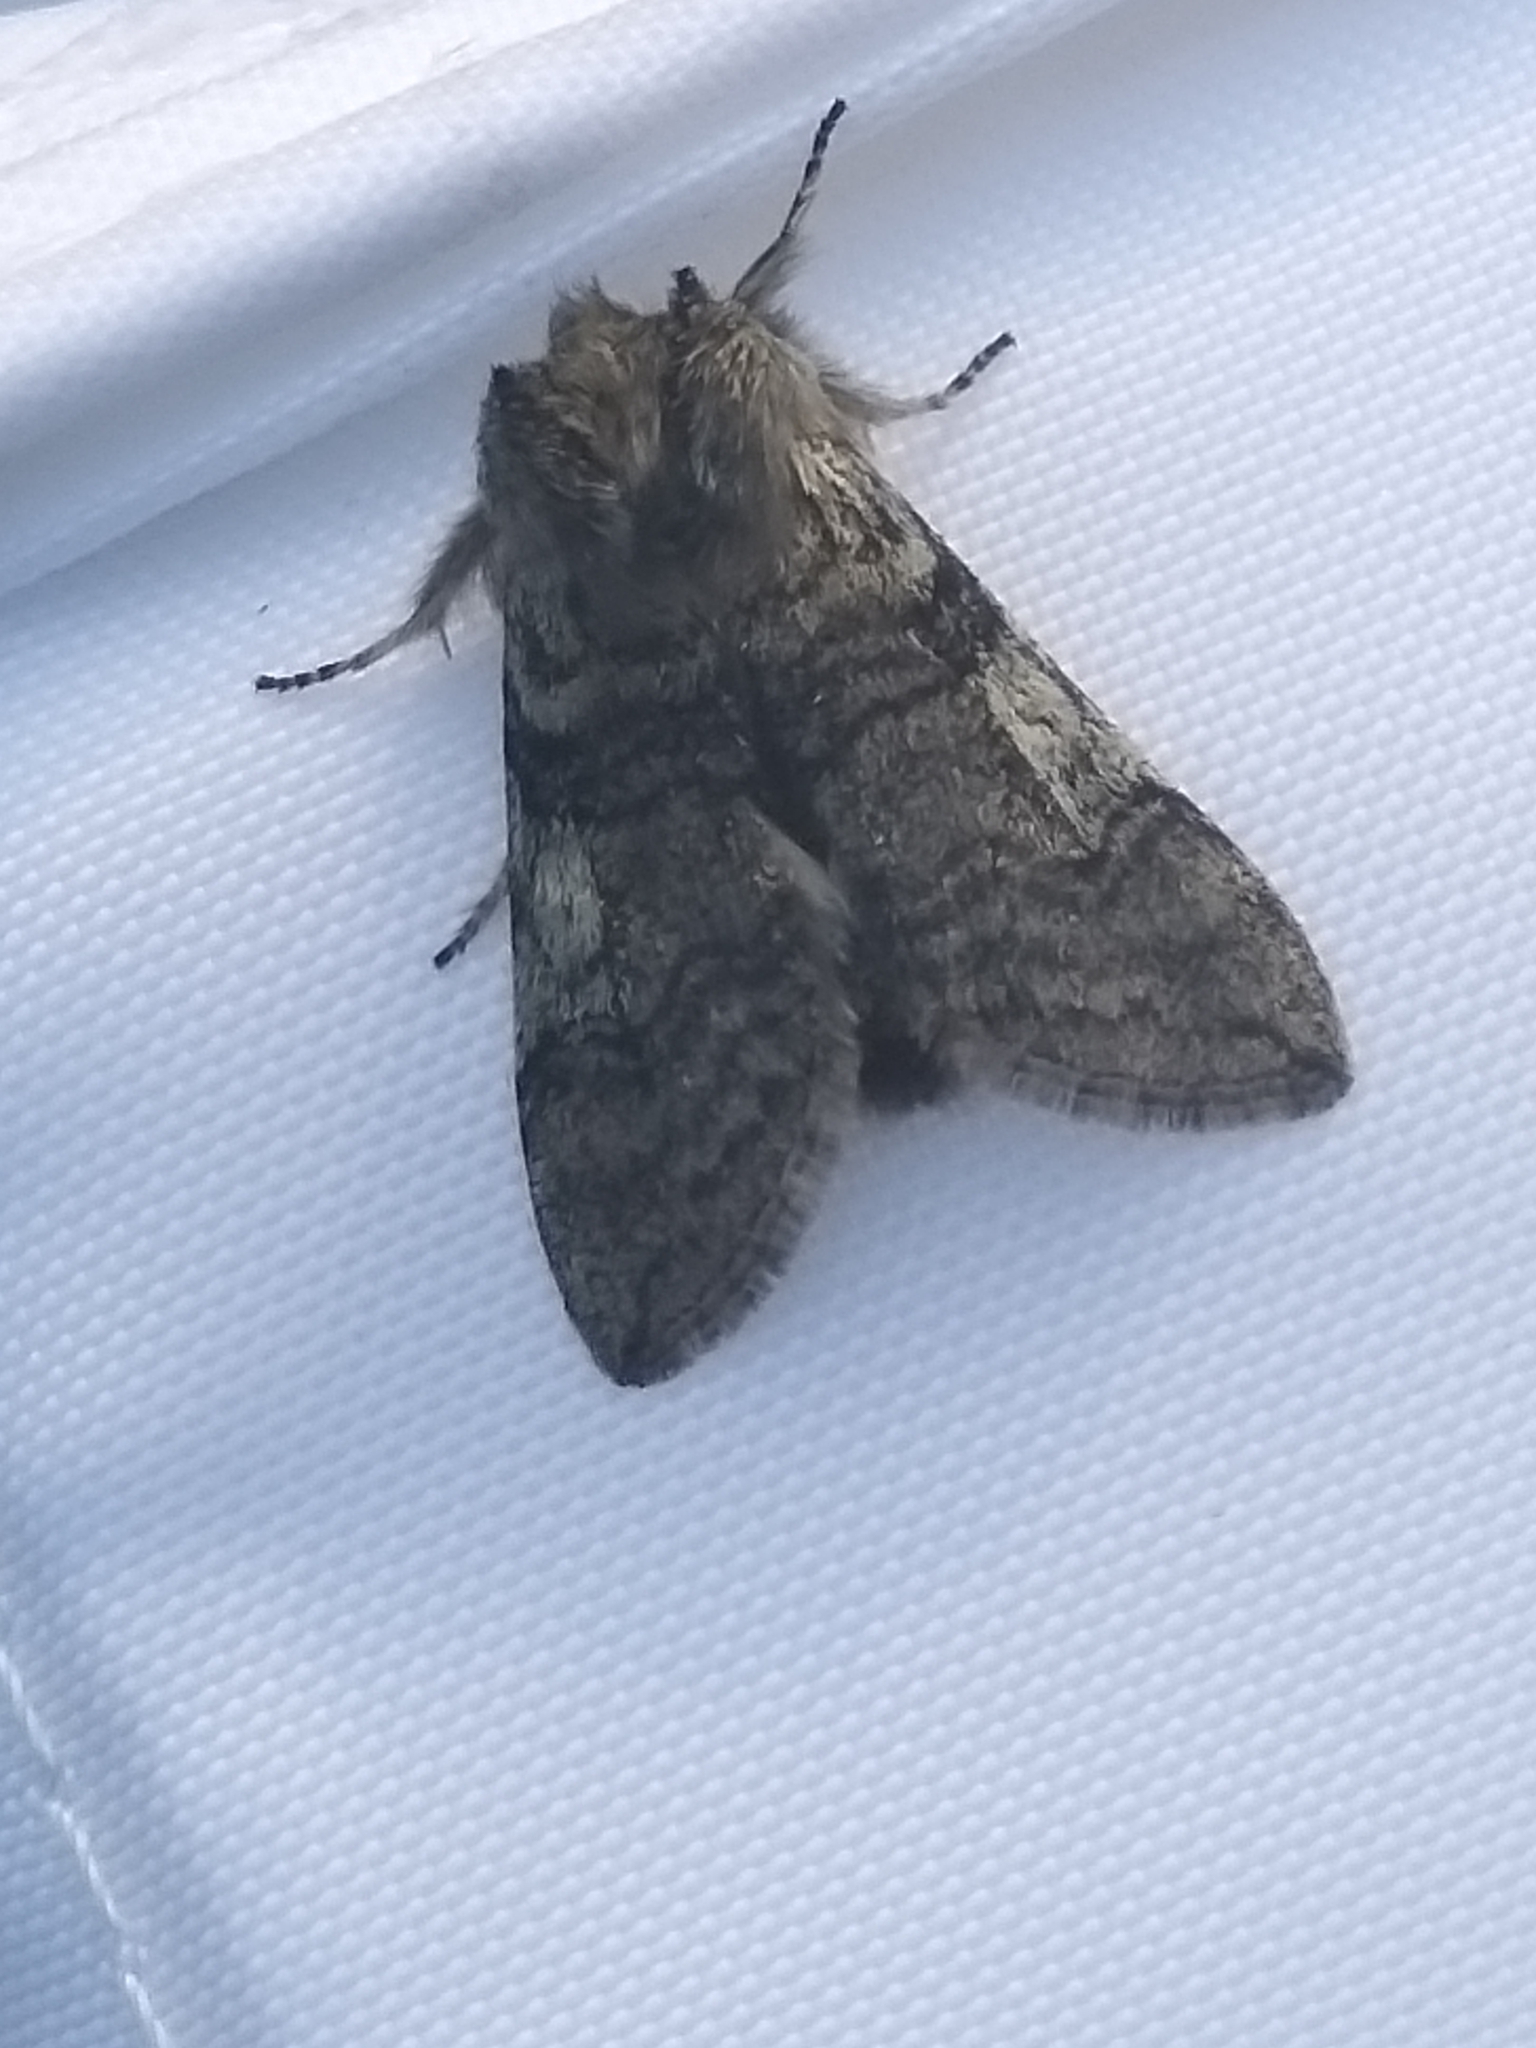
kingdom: Animalia
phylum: Arthropoda
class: Insecta
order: Lepidoptera
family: Drepanidae
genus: Achlya
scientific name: Achlya flavicornis
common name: Yellow horned
